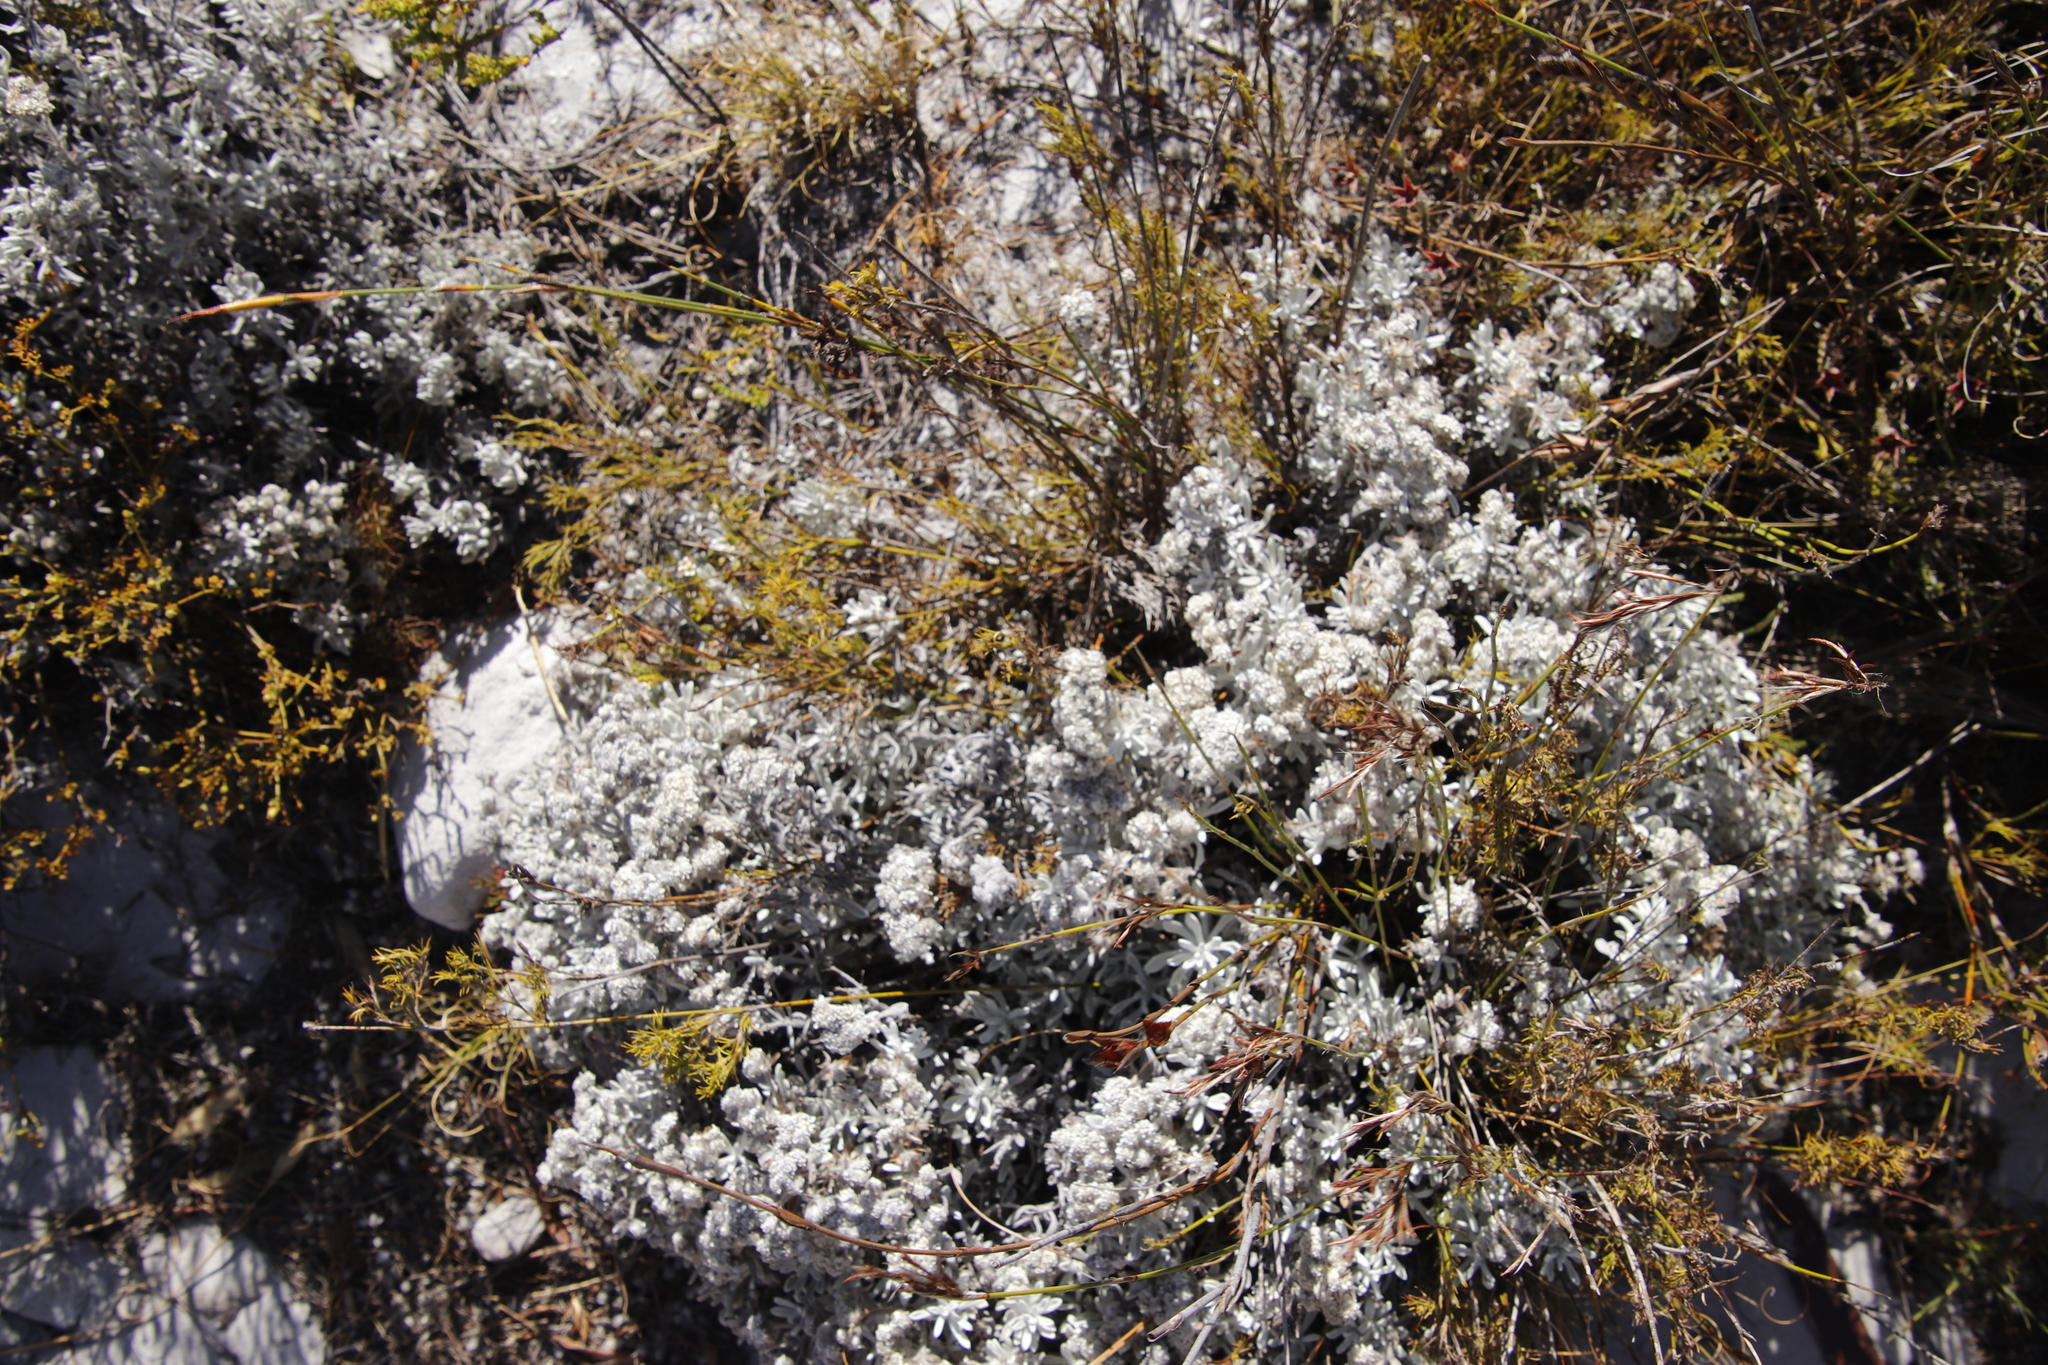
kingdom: Plantae
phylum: Tracheophyta
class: Magnoliopsida
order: Asterales
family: Asteraceae
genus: Petalacte
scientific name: Petalacte coronata
